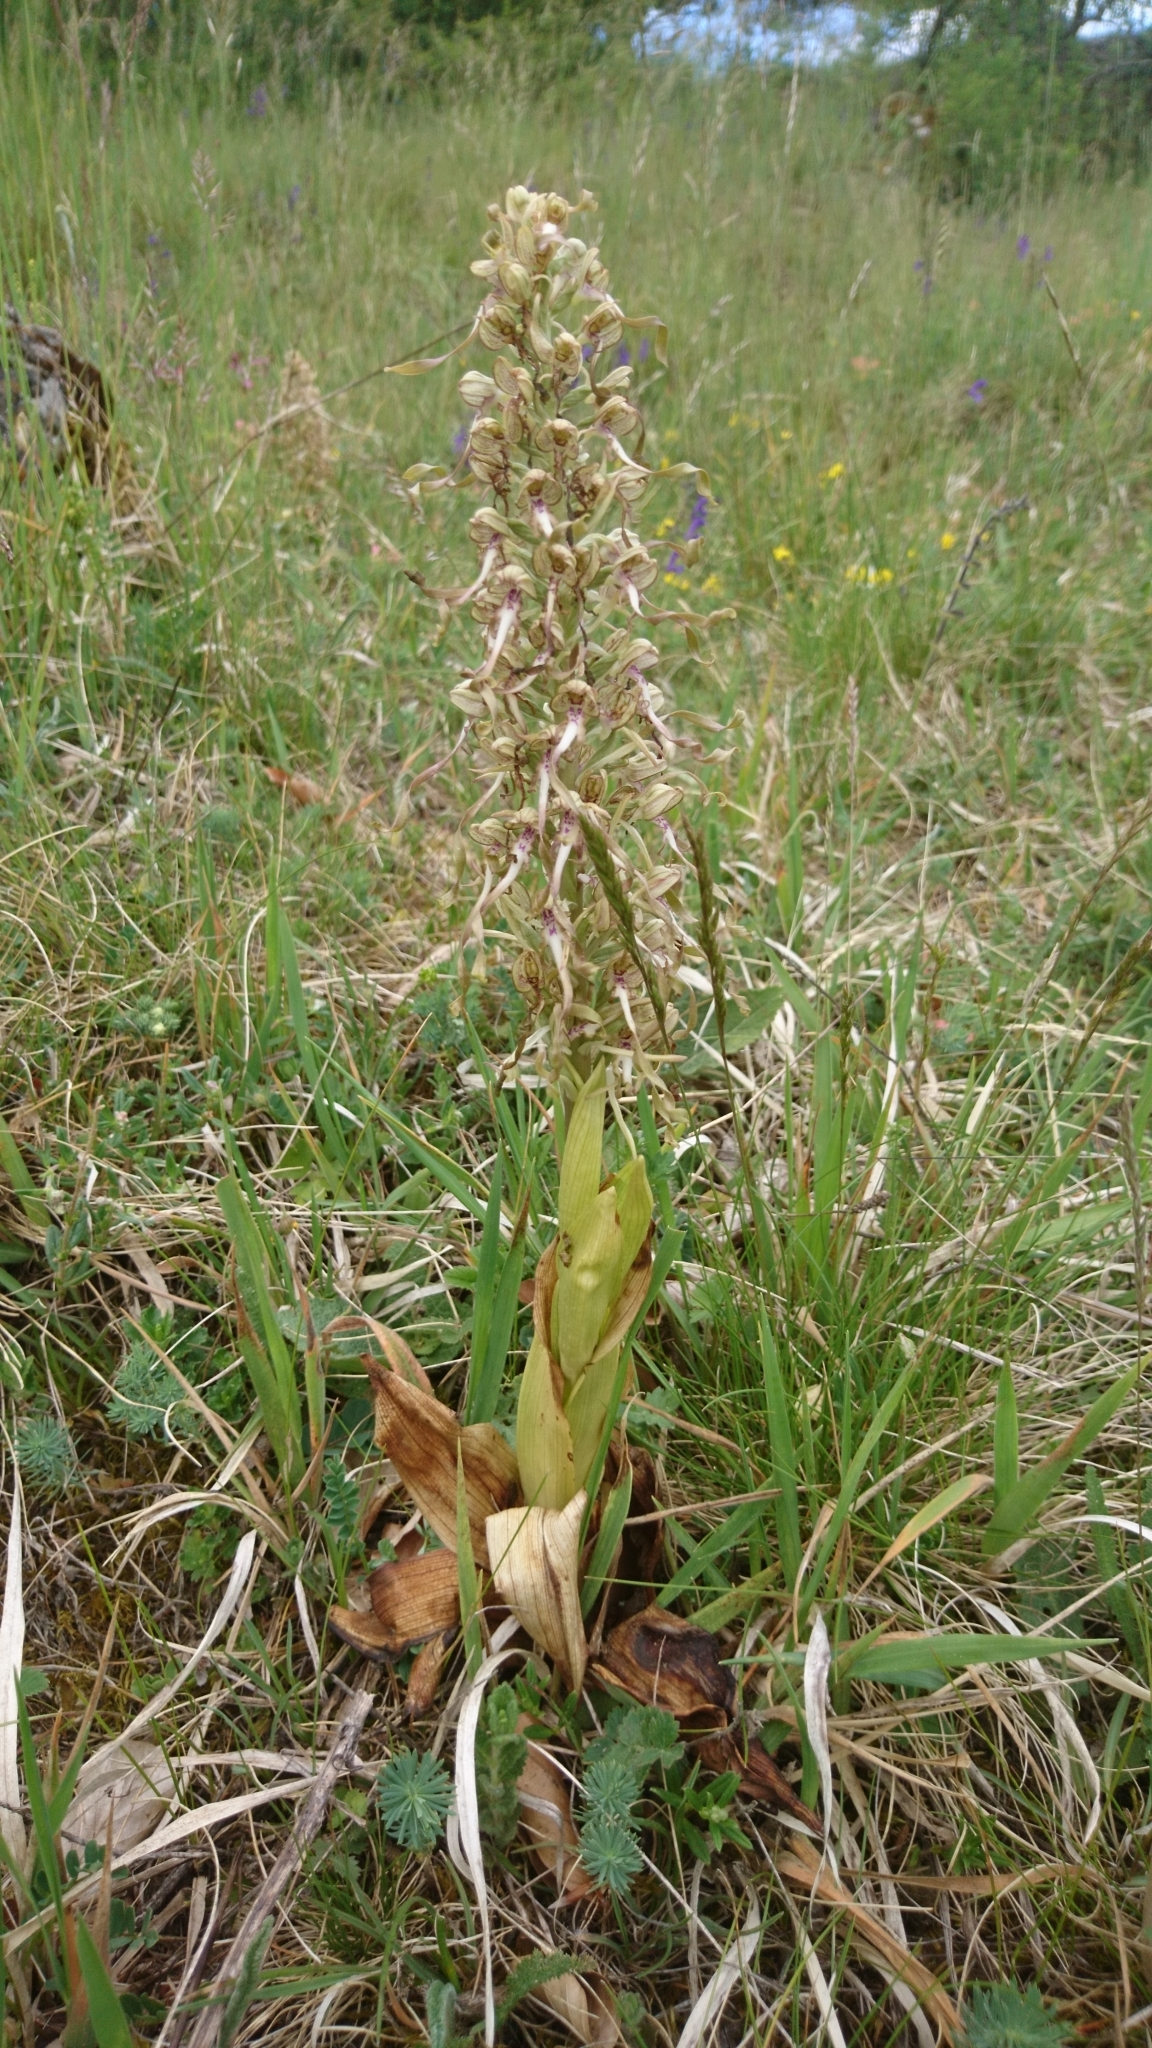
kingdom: Plantae
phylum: Tracheophyta
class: Liliopsida
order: Asparagales
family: Orchidaceae
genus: Himantoglossum
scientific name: Himantoglossum hircinum
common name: Lizard orchid
